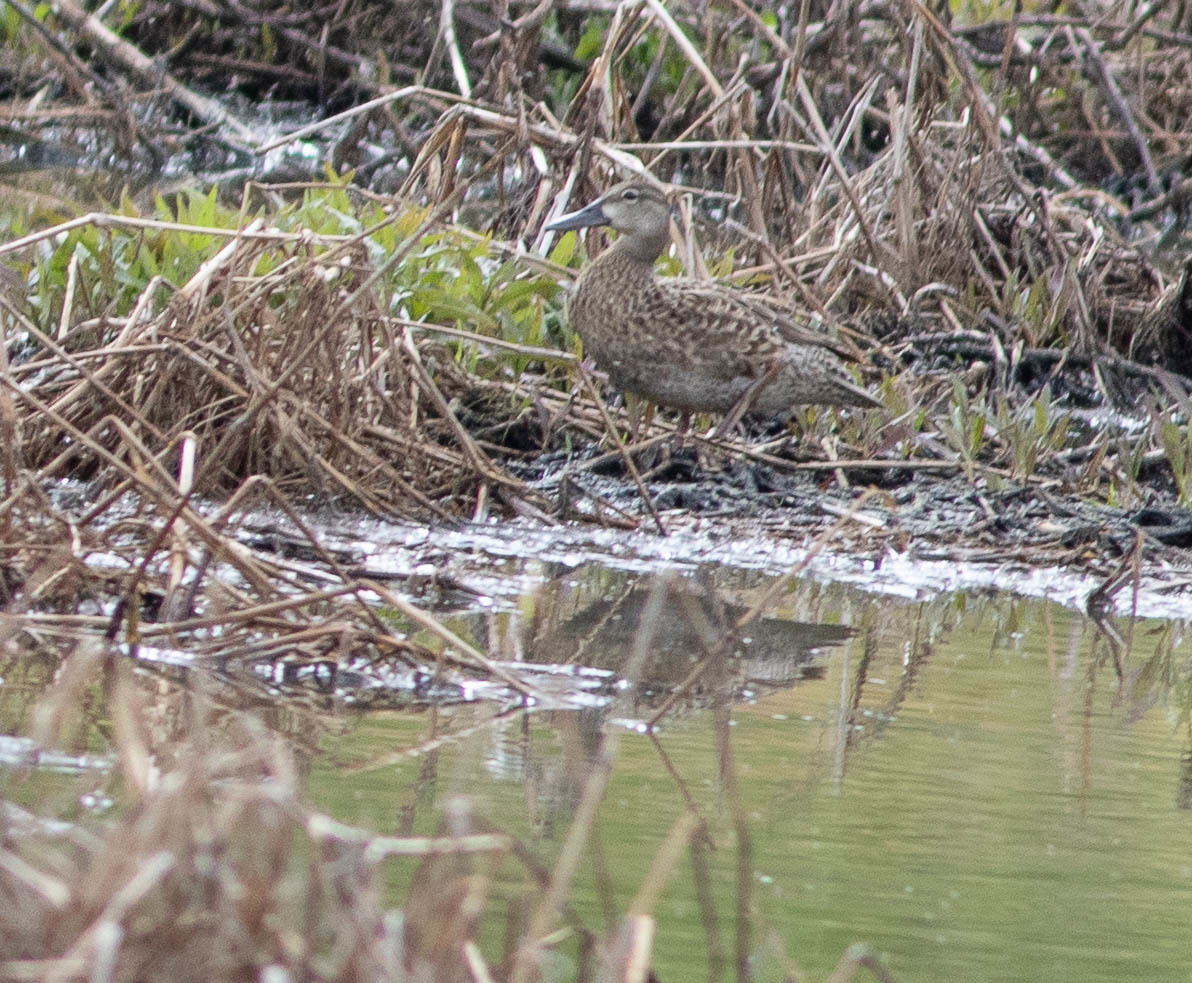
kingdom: Animalia
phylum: Chordata
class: Aves
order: Anseriformes
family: Anatidae
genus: Spatula
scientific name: Spatula discors
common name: Blue-winged teal
